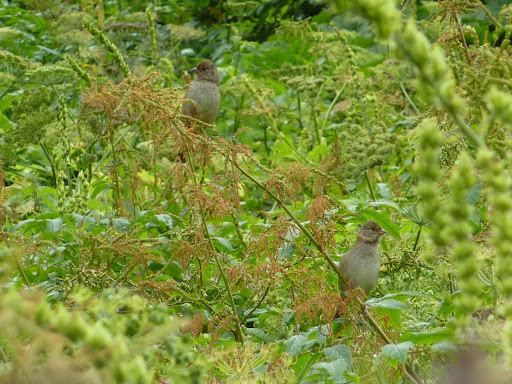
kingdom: Animalia
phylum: Chordata
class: Aves
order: Passeriformes
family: Passerellidae
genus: Zonotrichia
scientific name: Zonotrichia atricapilla
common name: Golden-crowned sparrow
